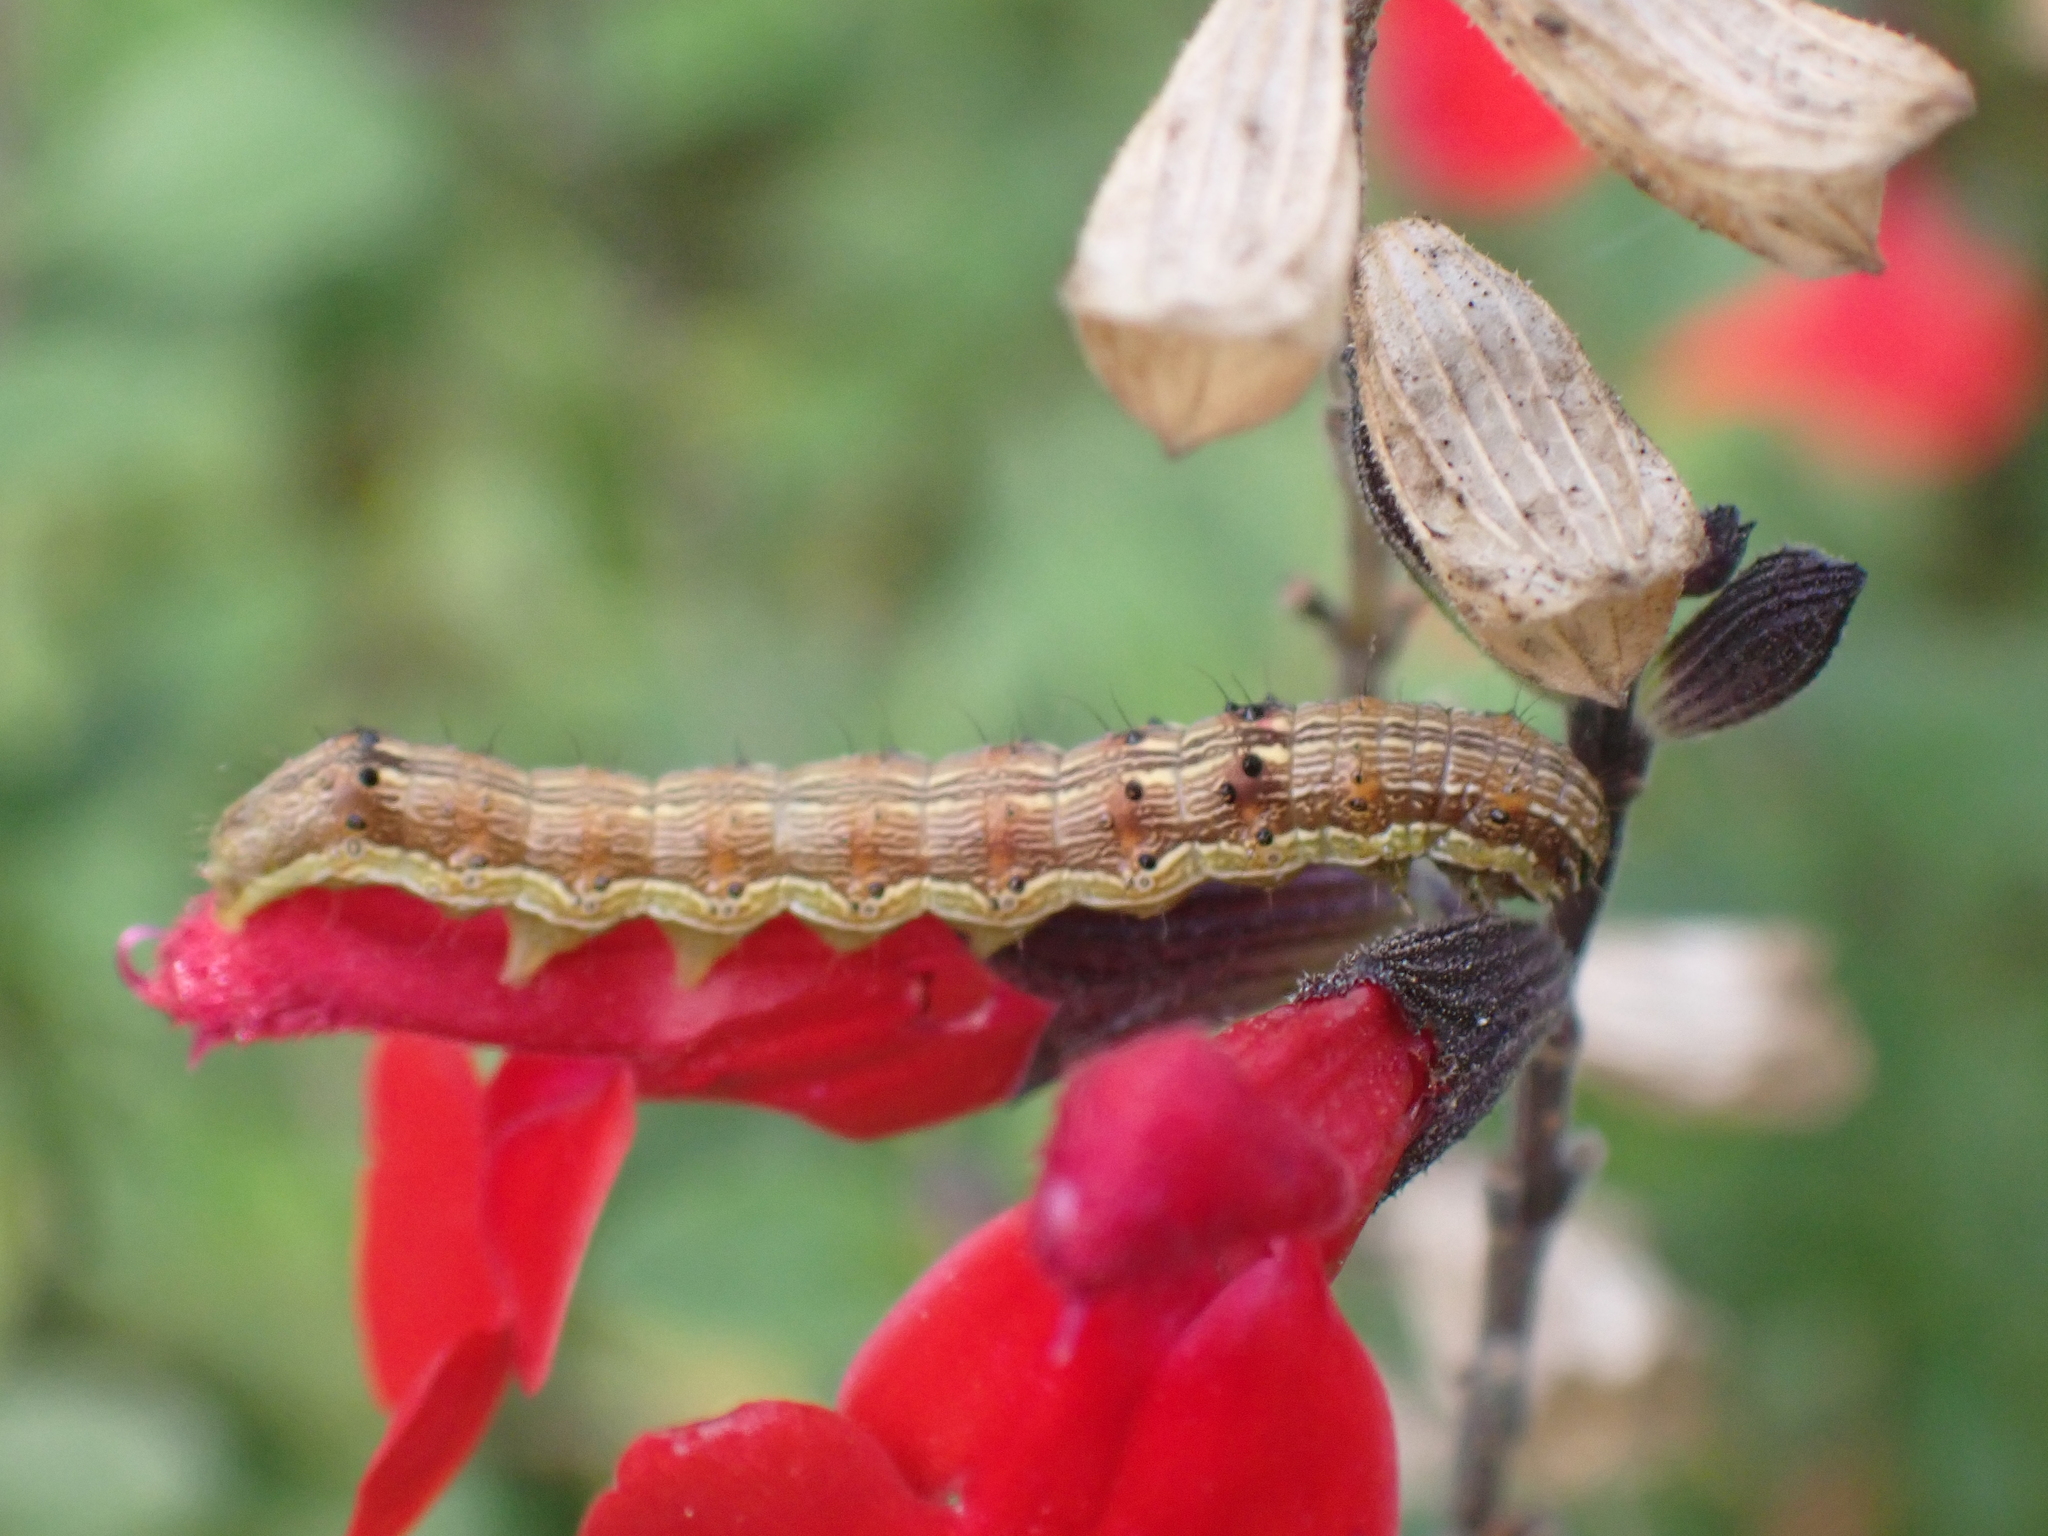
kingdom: Animalia
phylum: Arthropoda
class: Insecta
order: Lepidoptera
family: Noctuidae
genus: Helicoverpa
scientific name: Helicoverpa armigera
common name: Cotton bollworm
